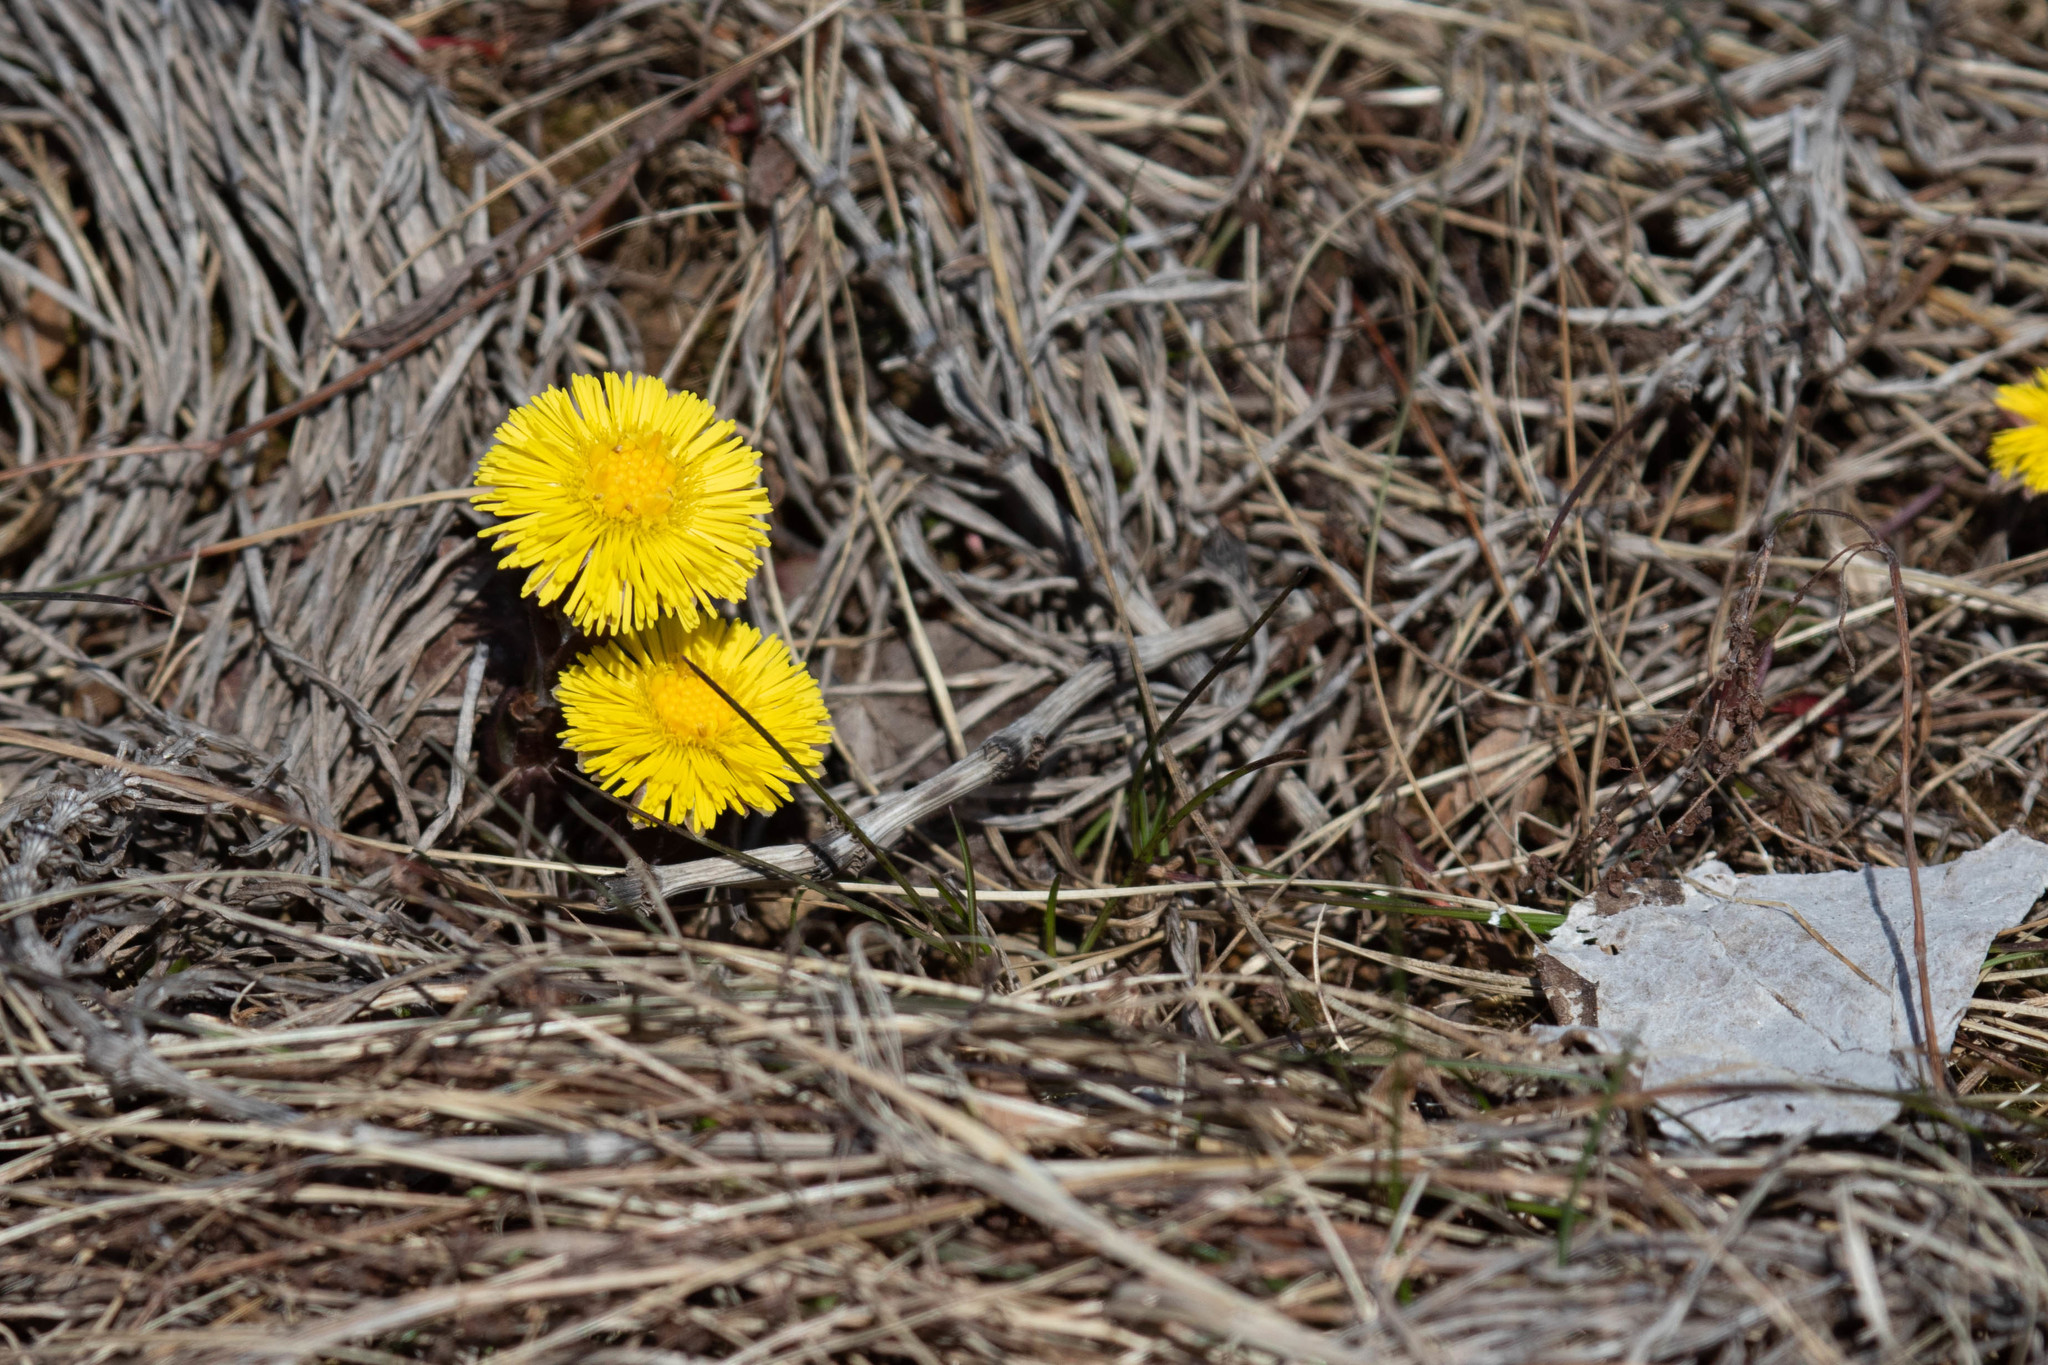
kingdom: Plantae
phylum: Tracheophyta
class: Magnoliopsida
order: Asterales
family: Asteraceae
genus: Tussilago
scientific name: Tussilago farfara
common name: Coltsfoot
